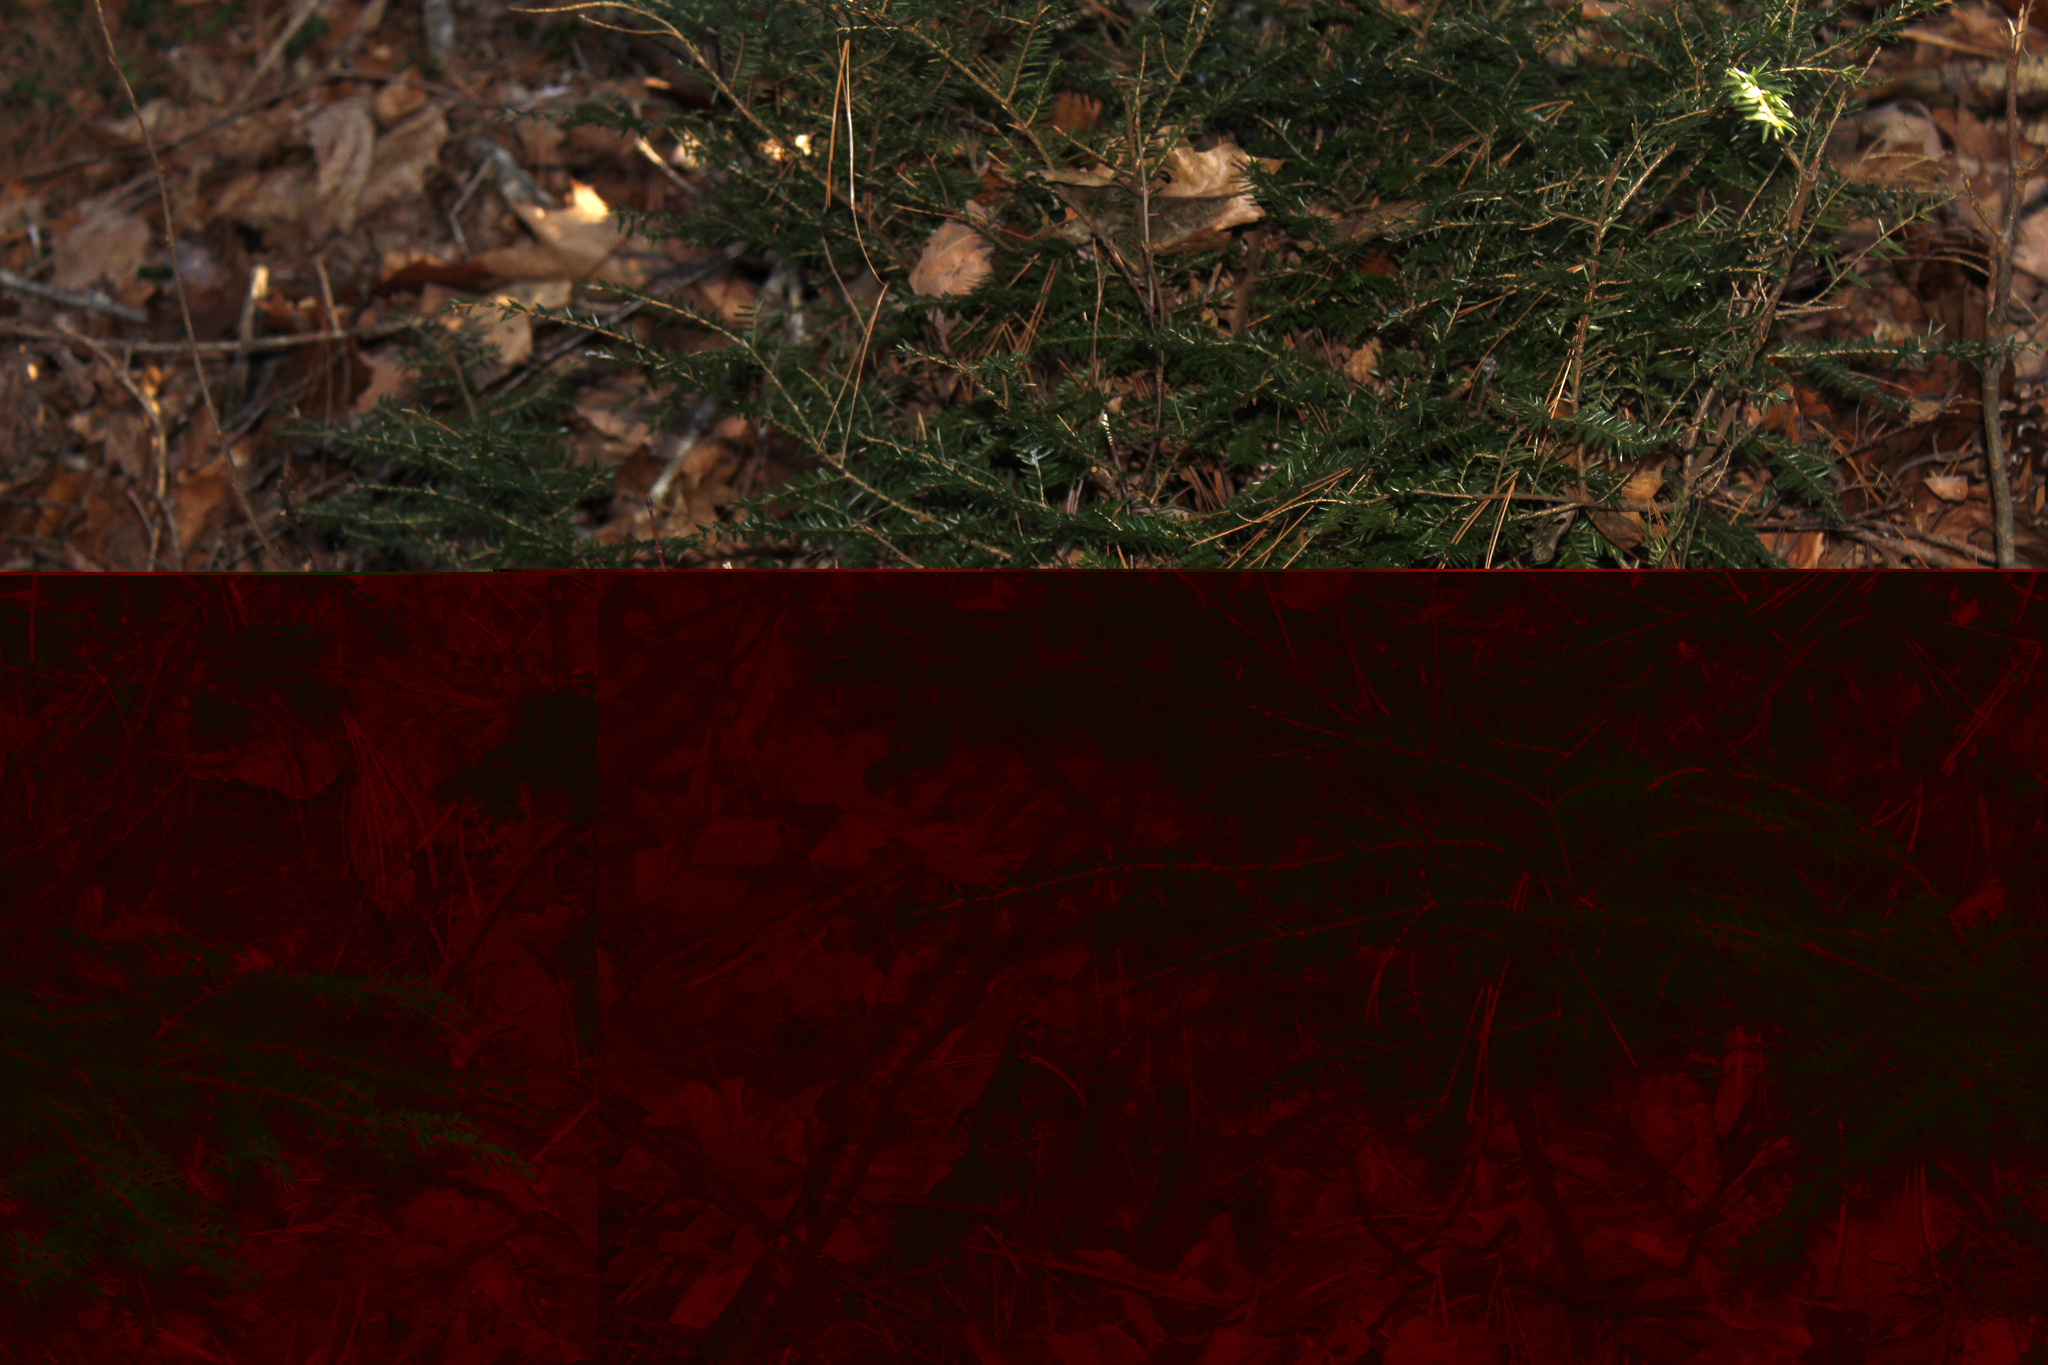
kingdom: Plantae
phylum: Tracheophyta
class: Pinopsida
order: Pinales
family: Pinaceae
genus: Tsuga
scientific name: Tsuga canadensis
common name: Eastern hemlock
